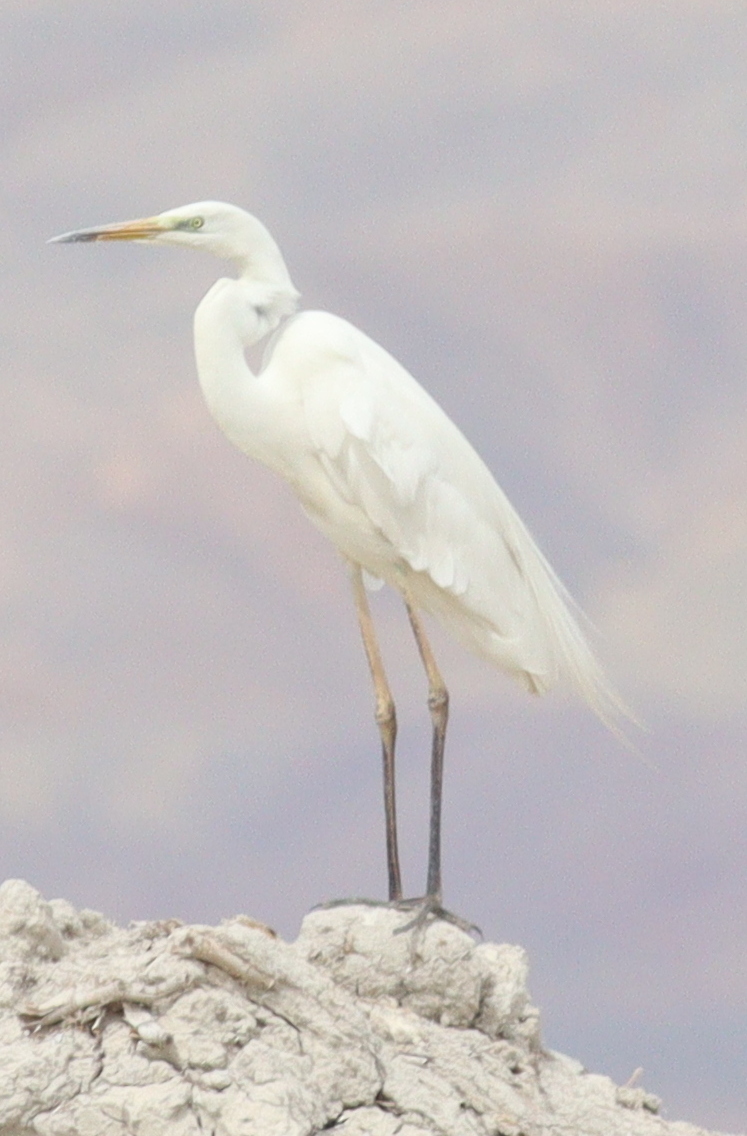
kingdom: Animalia
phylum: Chordata
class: Aves
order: Pelecaniformes
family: Ardeidae
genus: Ardea
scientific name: Ardea alba
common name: Great egret
